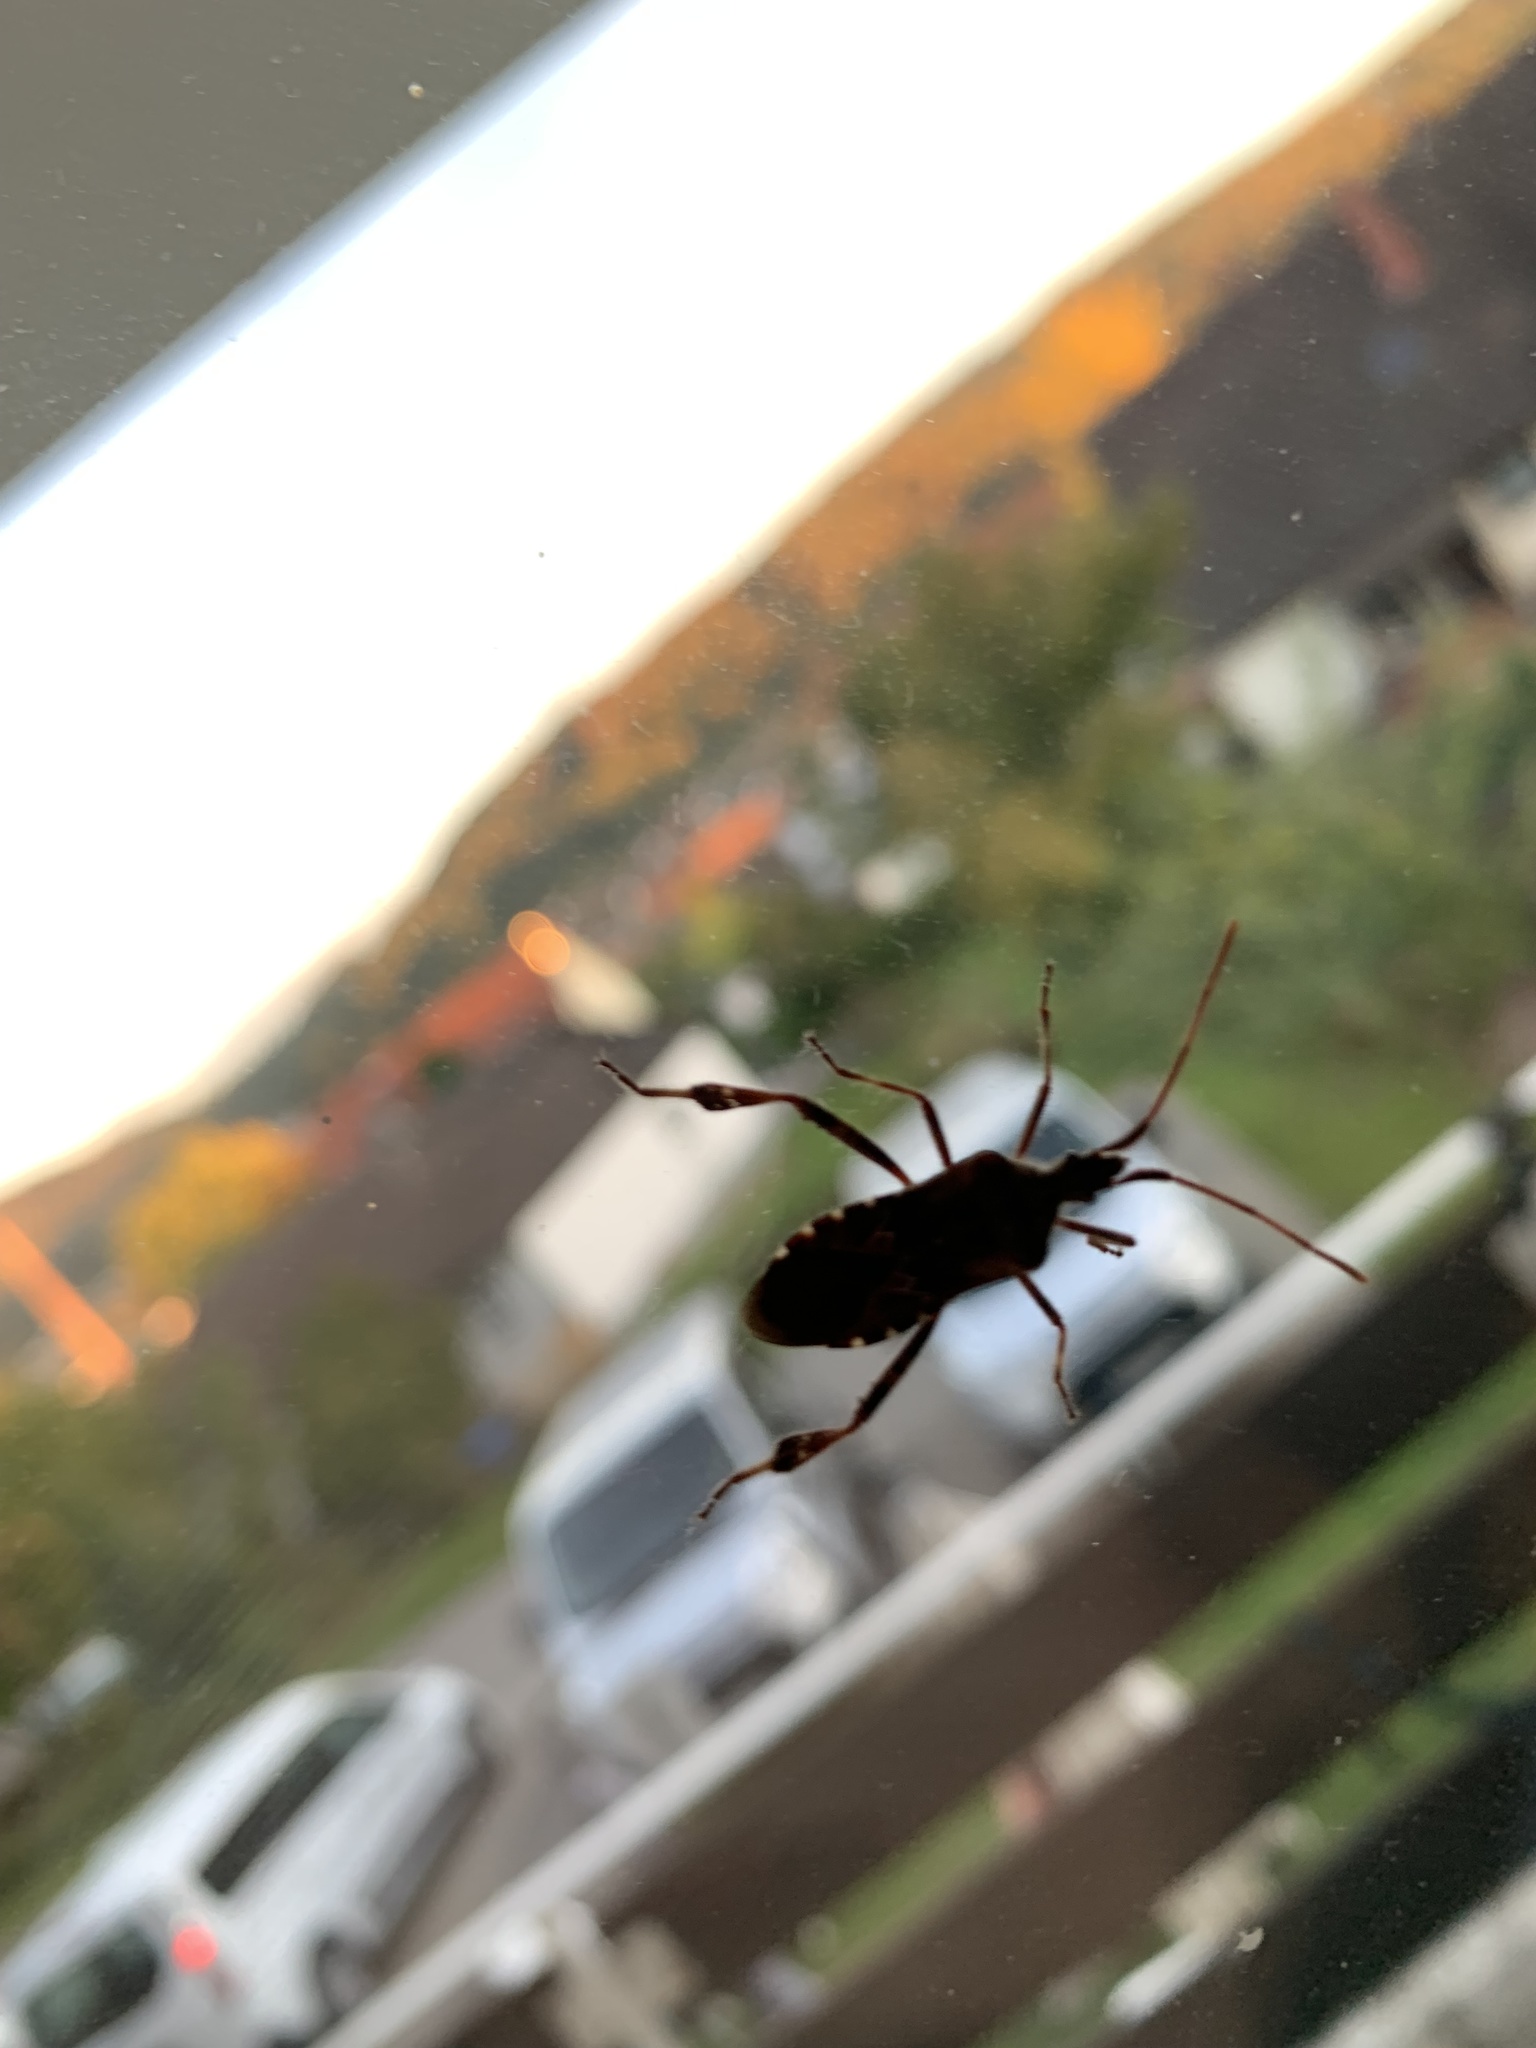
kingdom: Animalia
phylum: Arthropoda
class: Insecta
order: Hemiptera
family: Coreidae
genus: Leptoglossus
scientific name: Leptoglossus occidentalis
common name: Western conifer-seed bug
